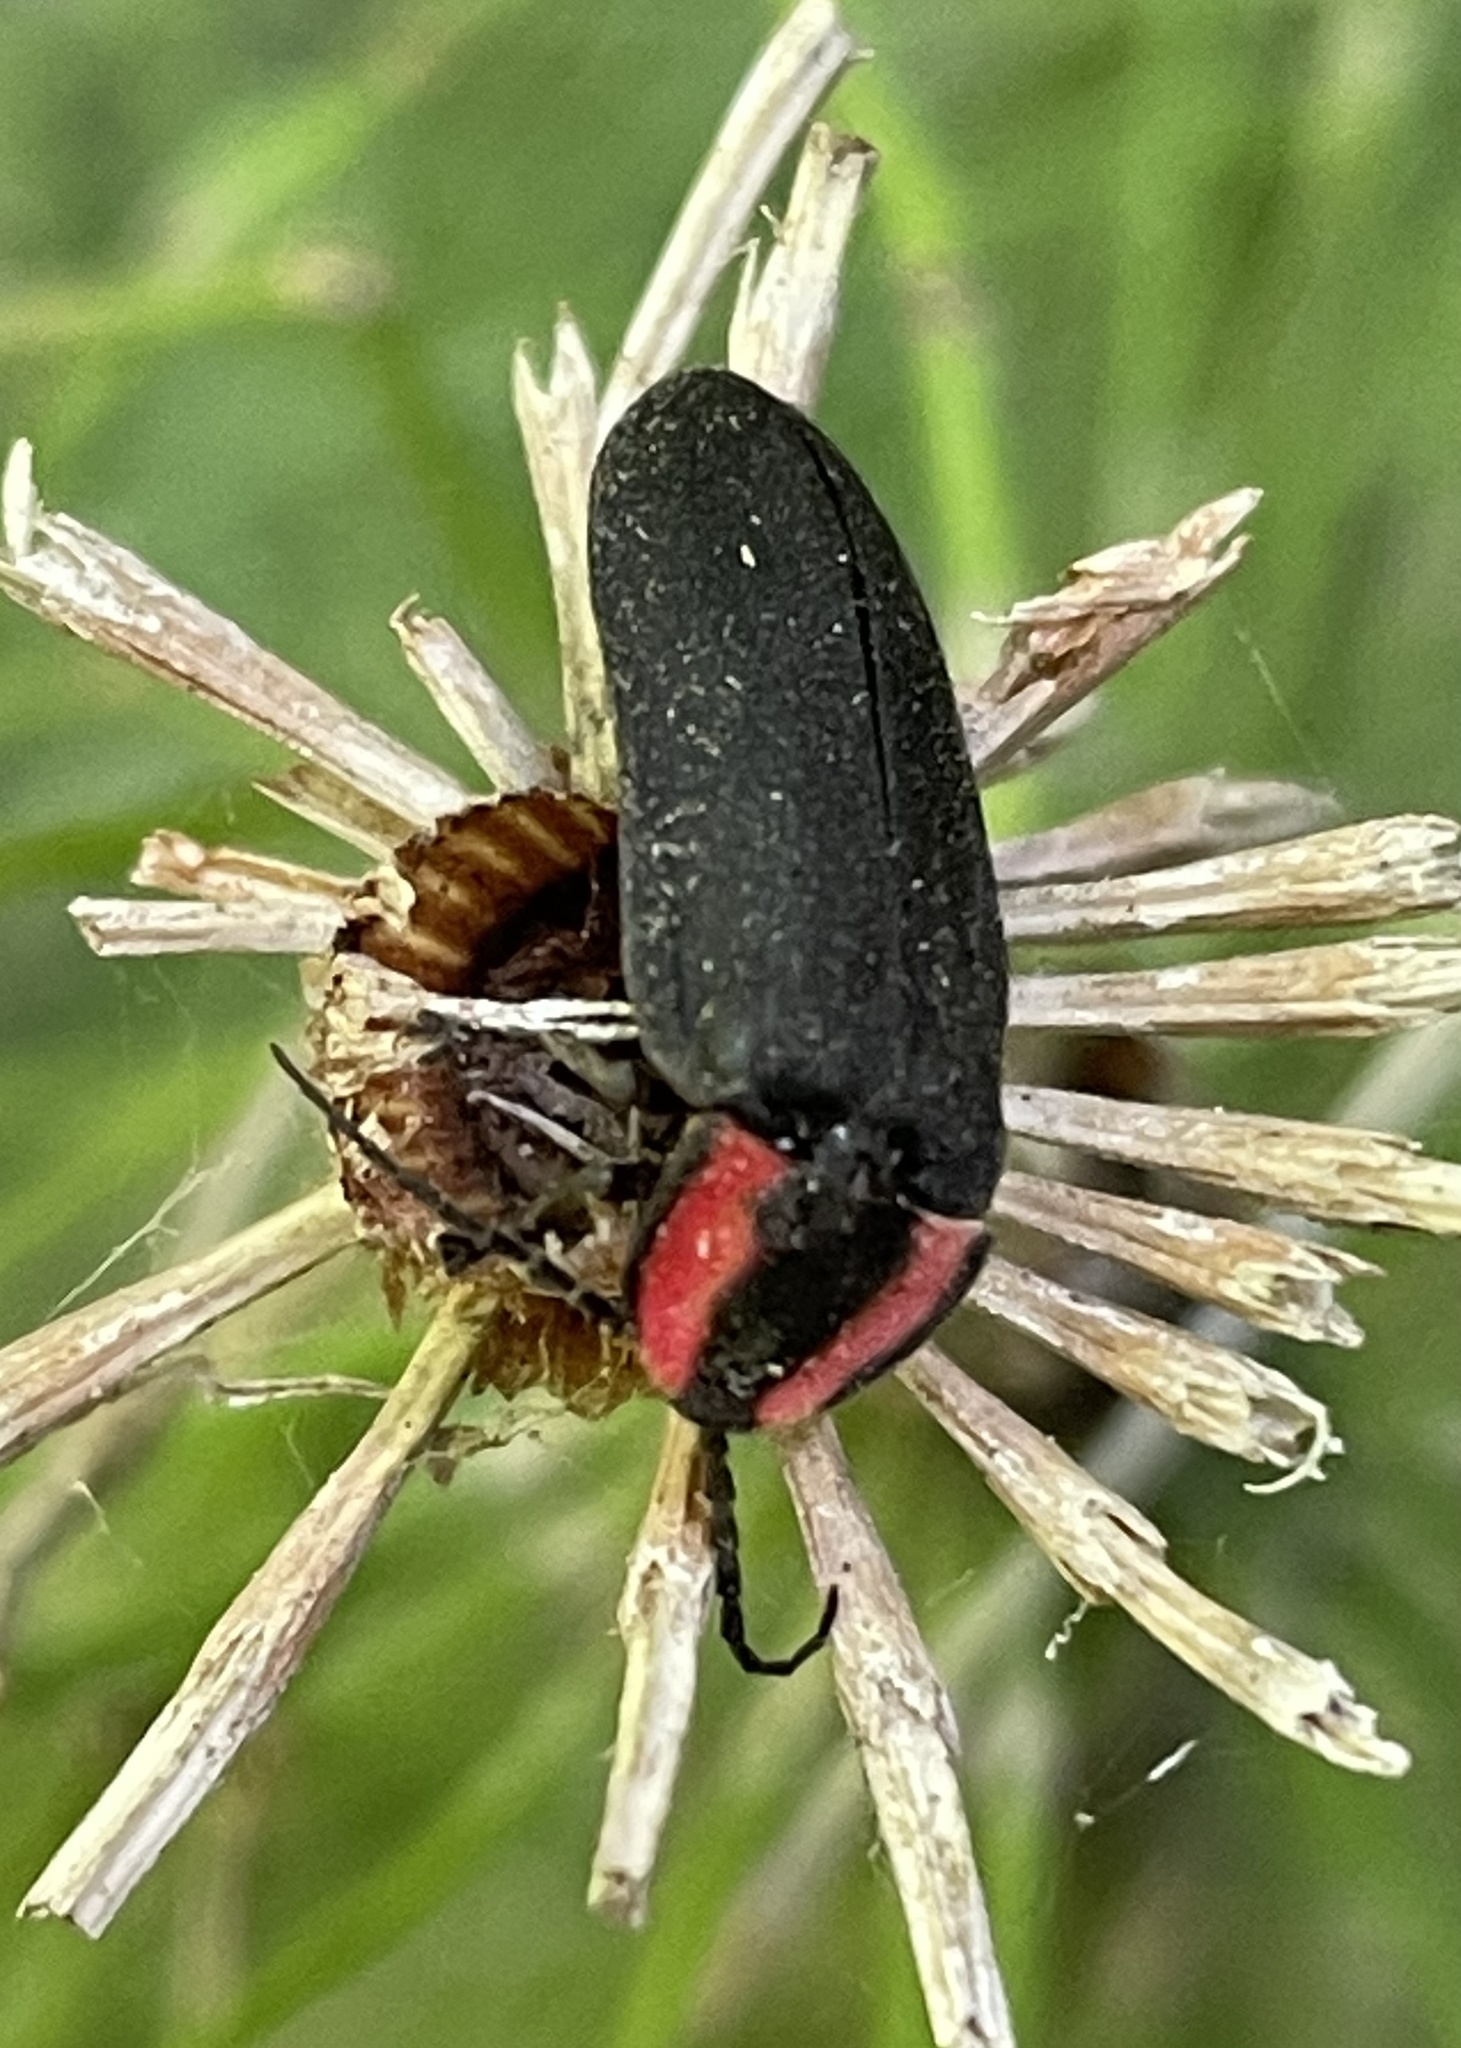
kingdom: Animalia
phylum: Arthropoda
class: Insecta
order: Coleoptera
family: Lampyridae
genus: Photinus
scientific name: Photinus californica
